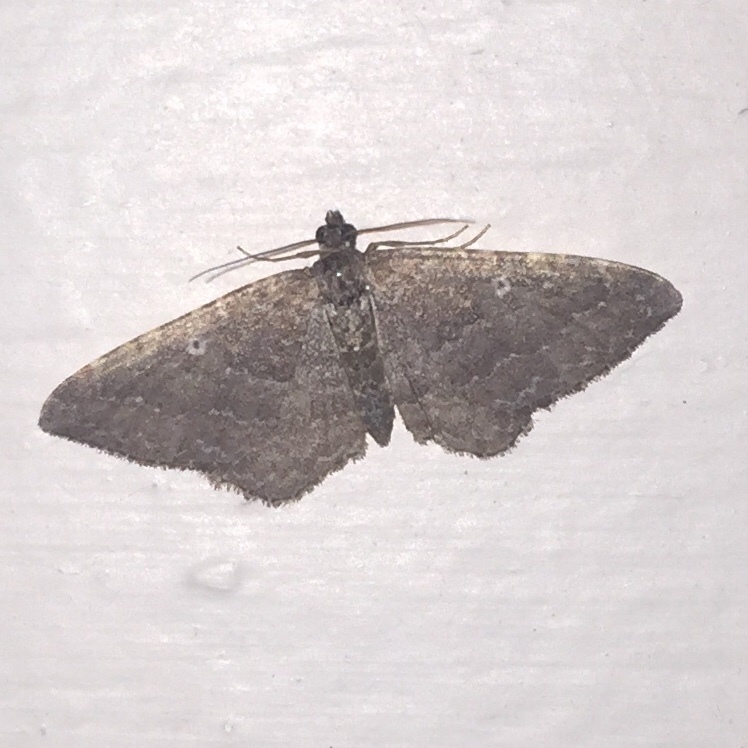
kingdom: Animalia
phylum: Arthropoda
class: Insecta
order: Lepidoptera
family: Geometridae
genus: Orthonama
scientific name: Orthonama obstipata
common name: The gem
